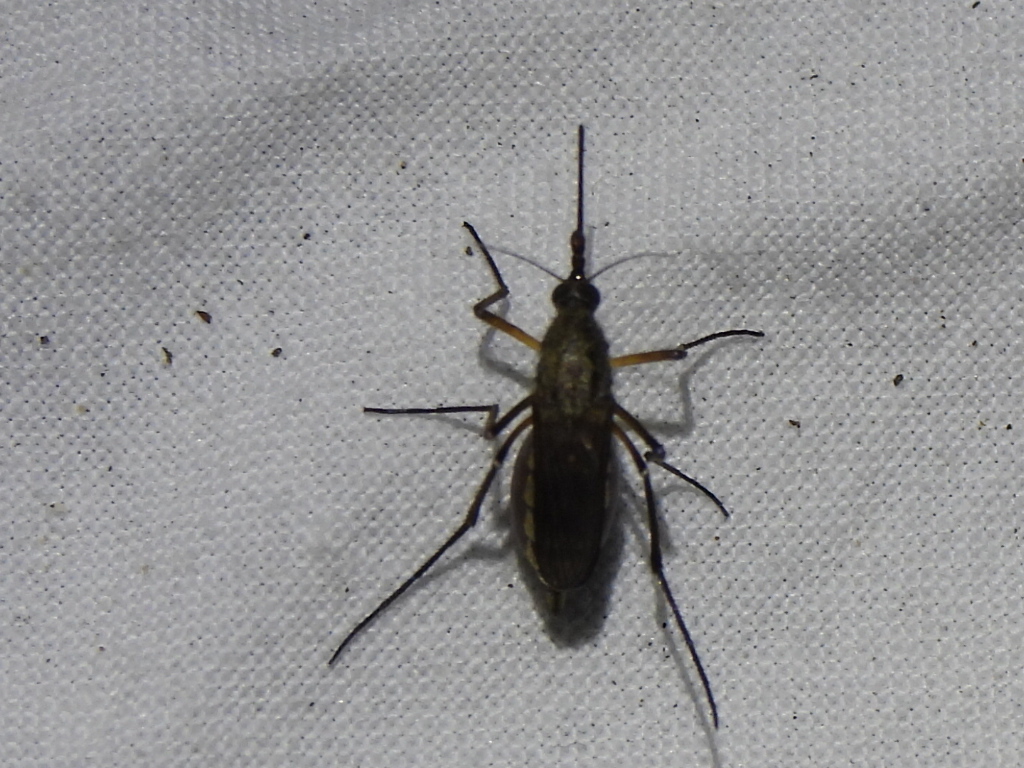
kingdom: Animalia
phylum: Arthropoda
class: Insecta
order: Diptera
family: Culicidae
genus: Psorophora
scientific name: Psorophora cyanescens
